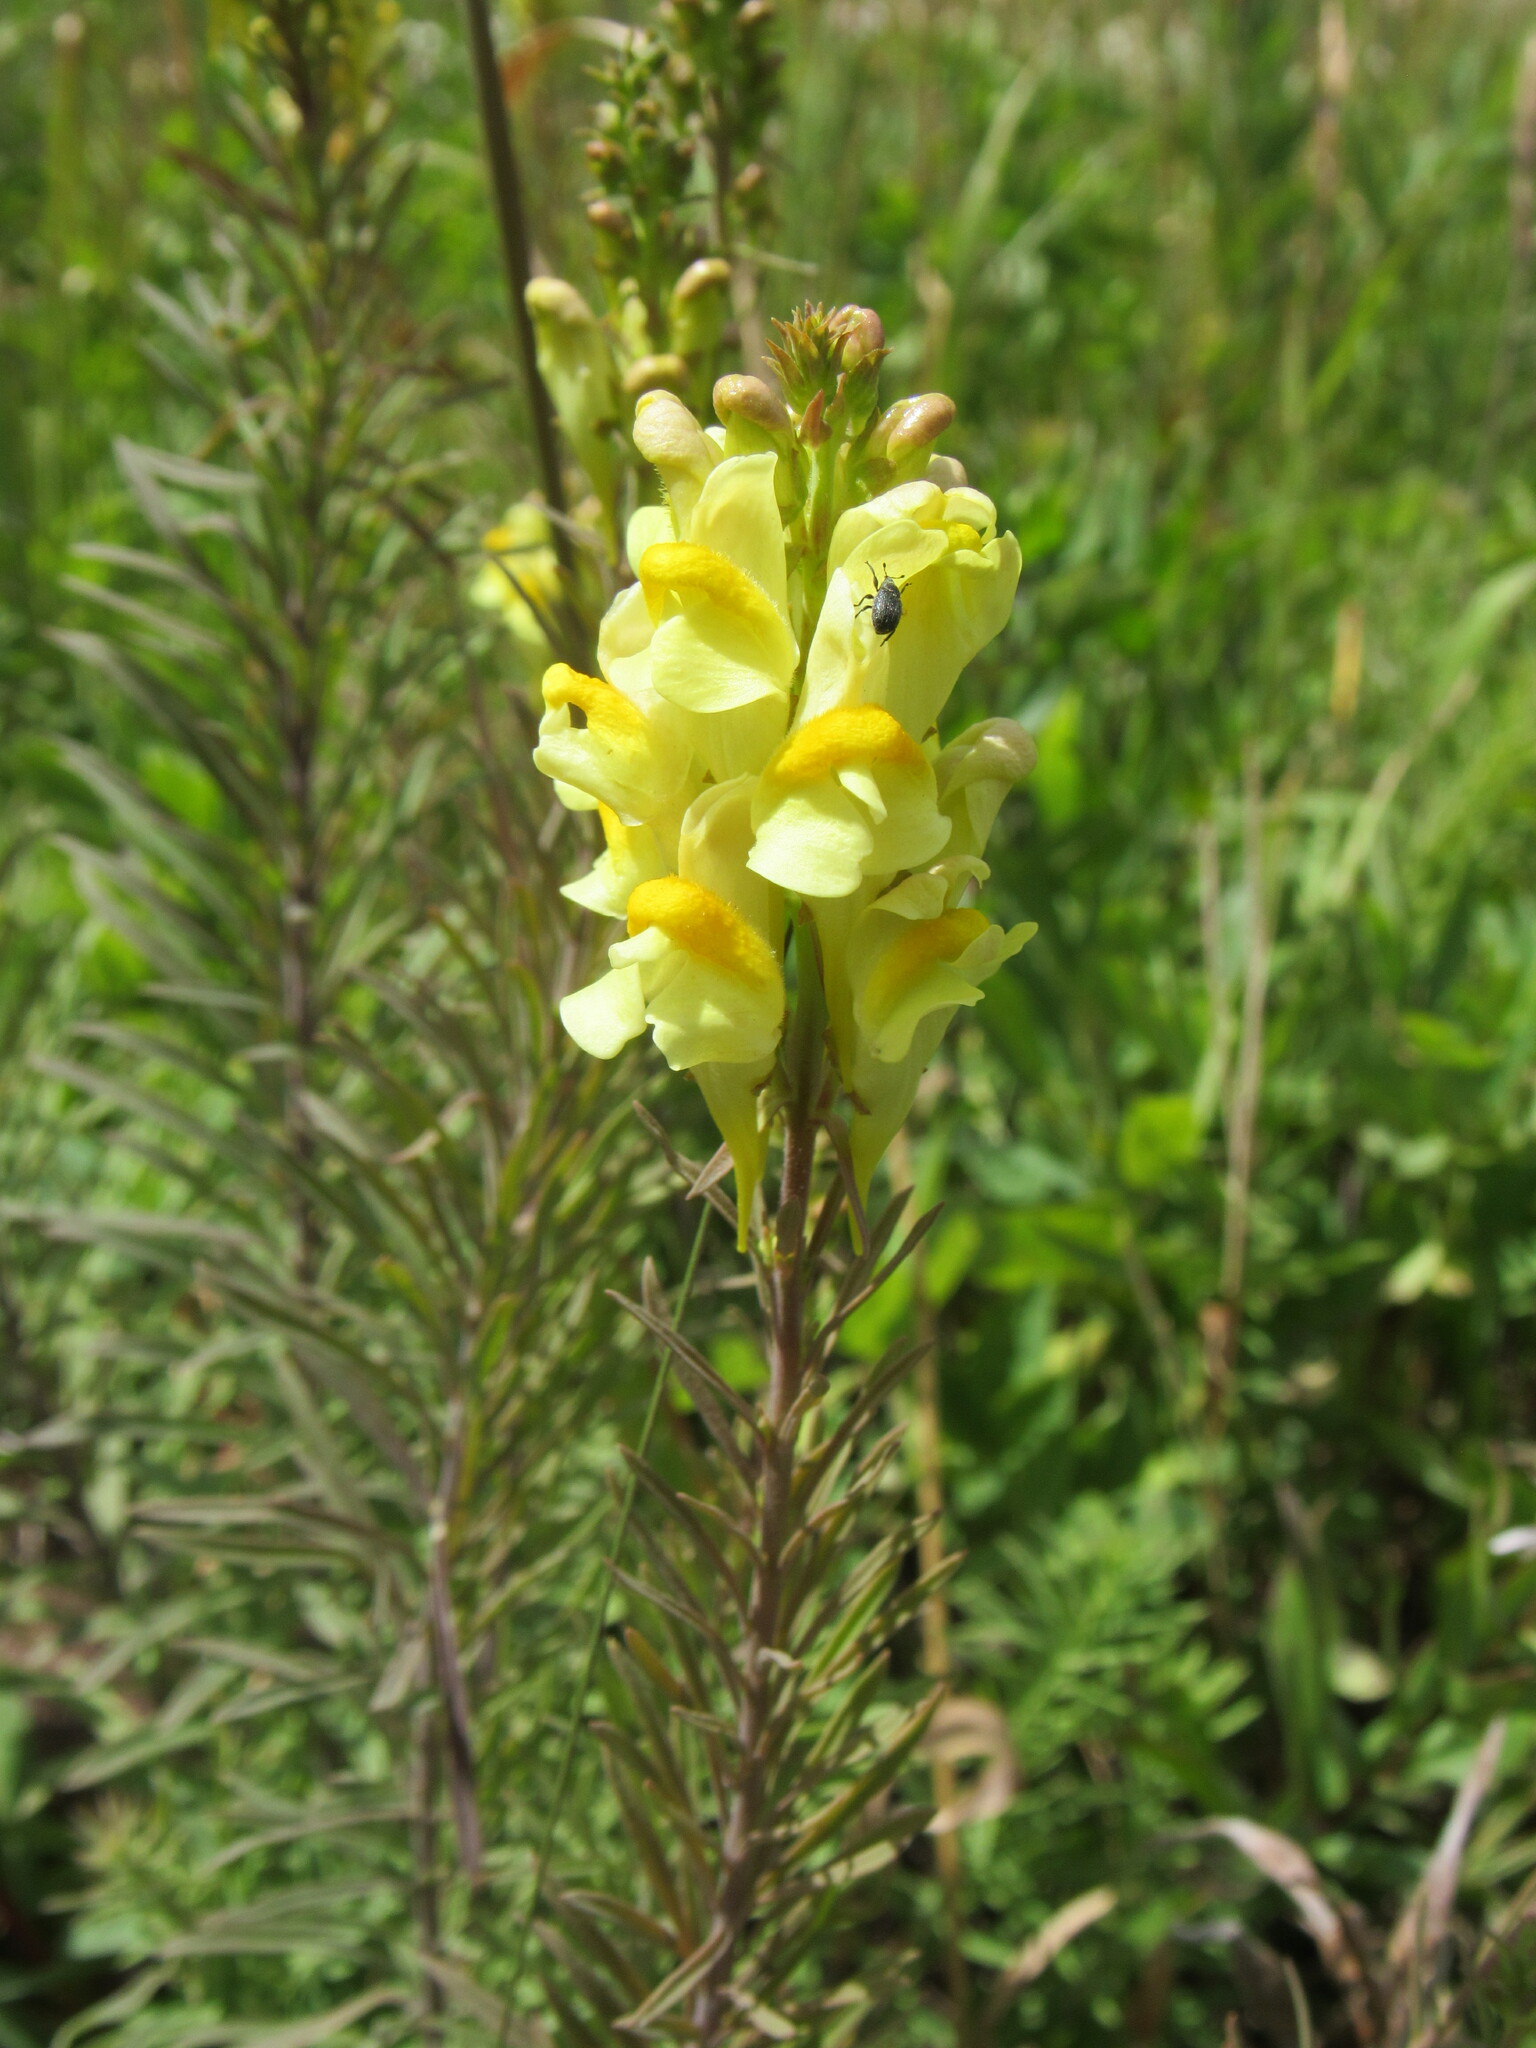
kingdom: Plantae
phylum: Tracheophyta
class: Magnoliopsida
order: Lamiales
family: Plantaginaceae
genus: Linaria
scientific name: Linaria vulgaris
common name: Butter and eggs
